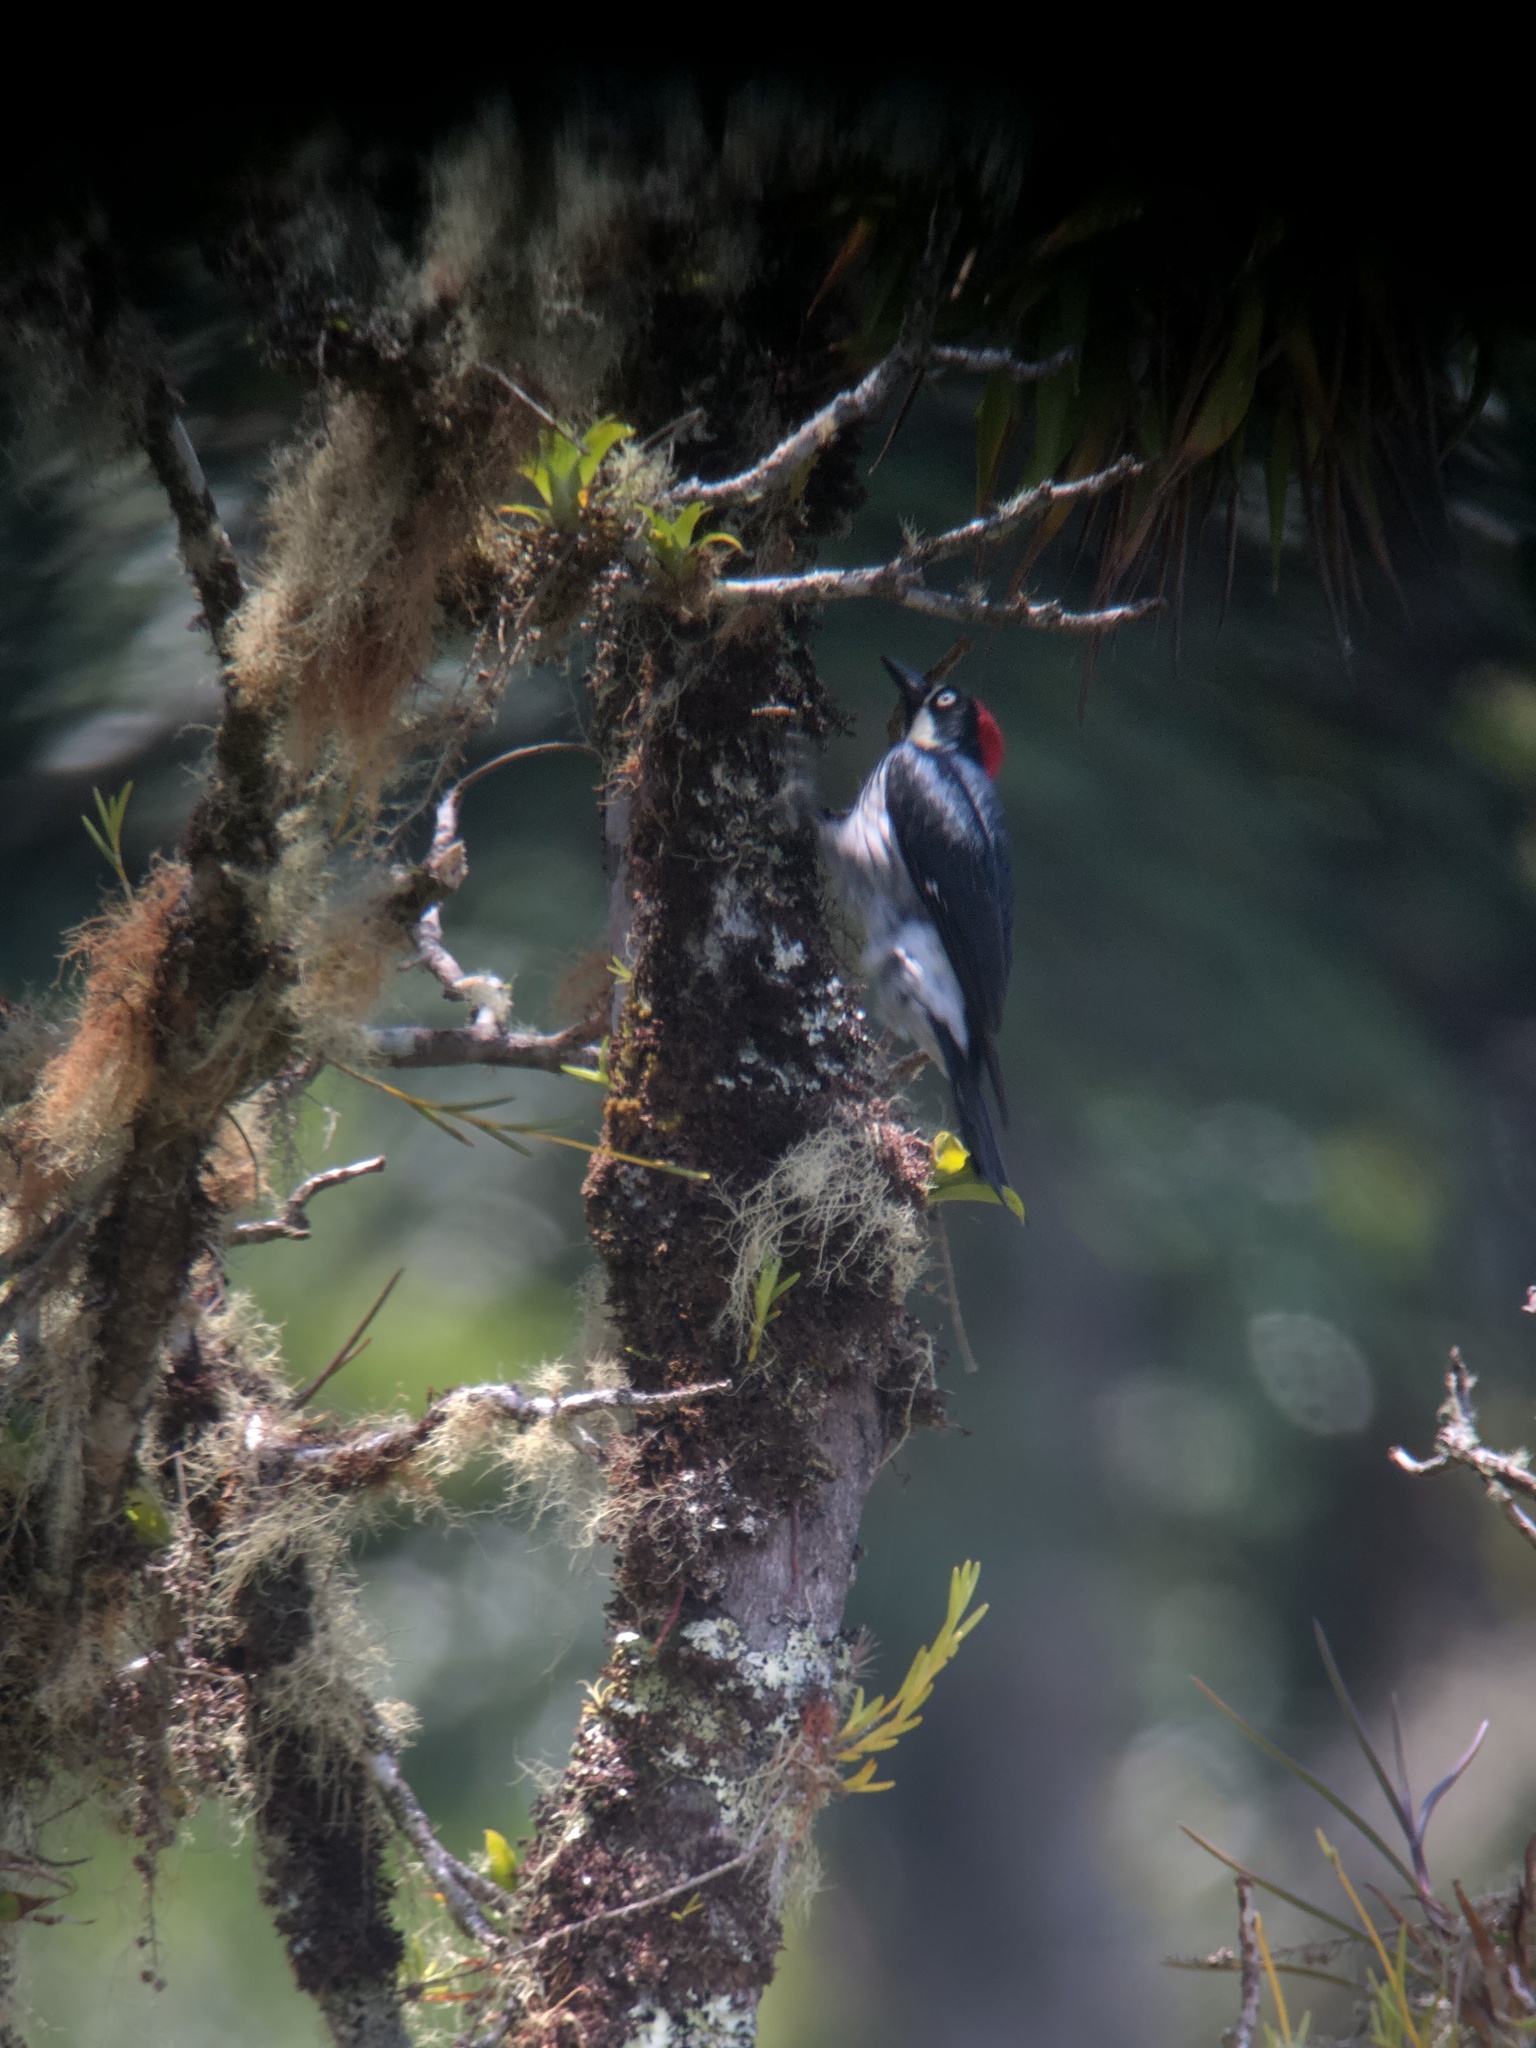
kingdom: Animalia
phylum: Chordata
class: Aves
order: Piciformes
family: Picidae
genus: Melanerpes
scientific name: Melanerpes formicivorus
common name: Acorn woodpecker
